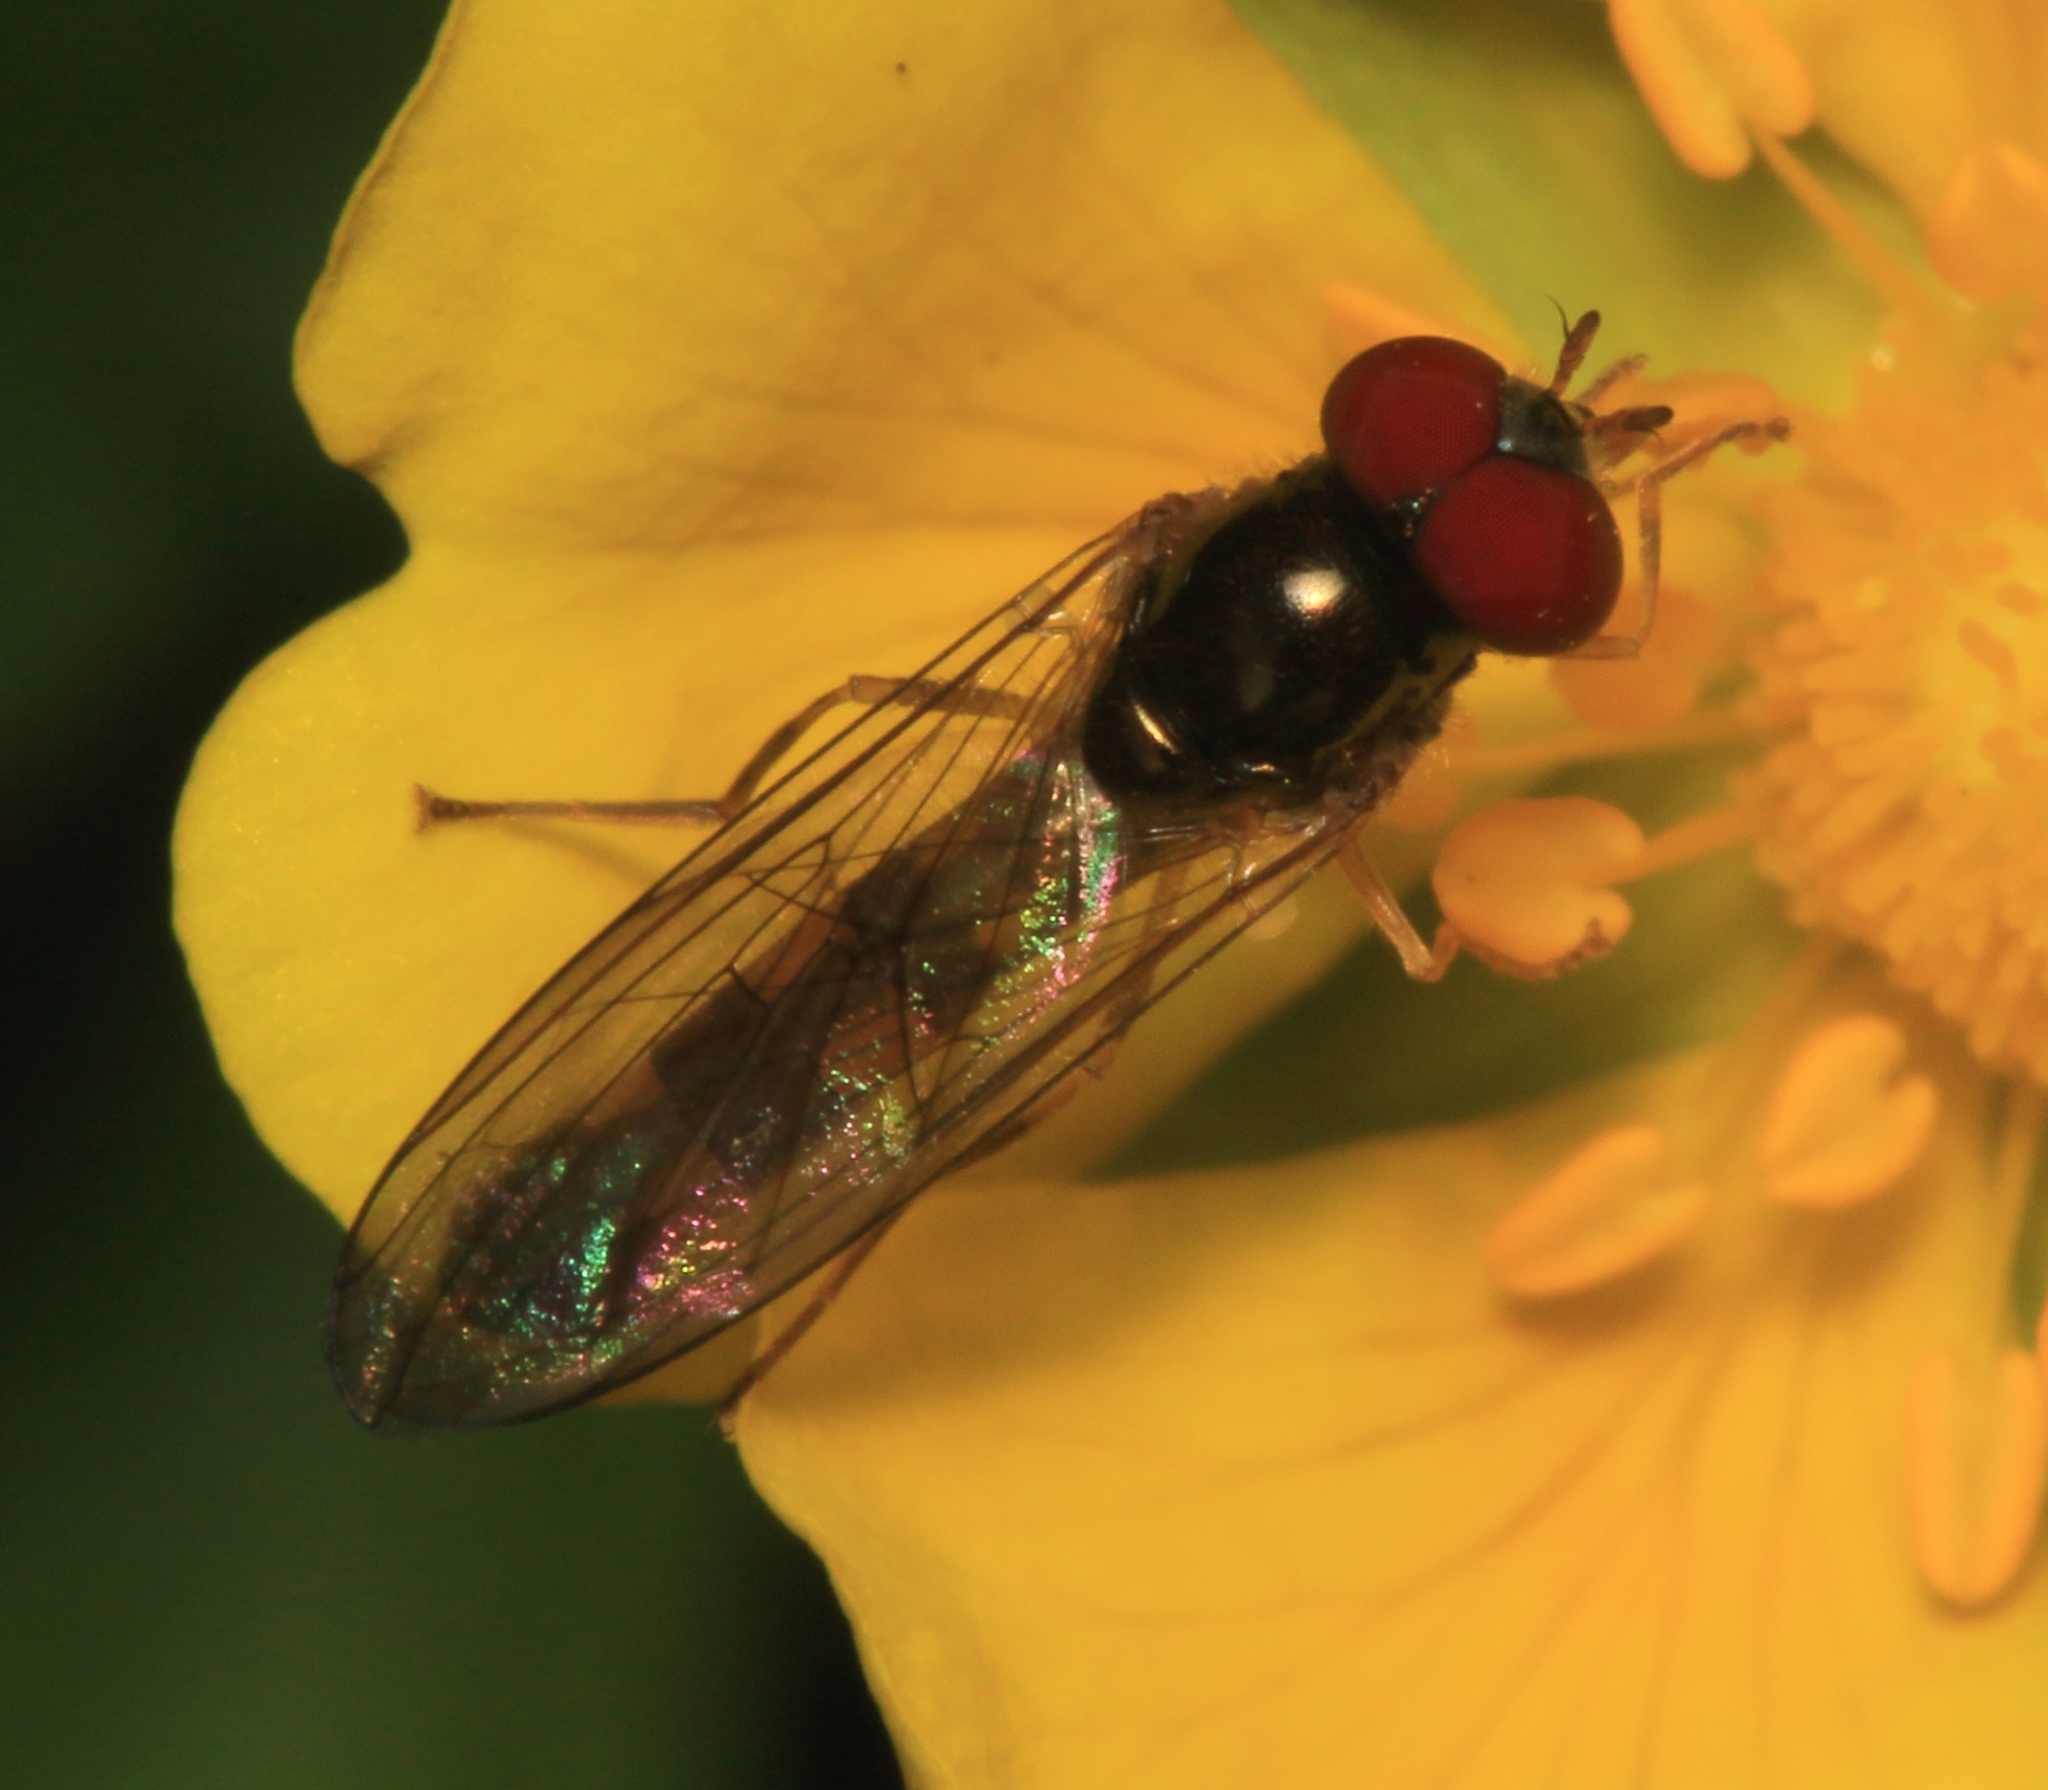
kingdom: Animalia
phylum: Arthropoda
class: Insecta
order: Diptera
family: Syrphidae
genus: Melanostoma
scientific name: Melanostoma scalare
